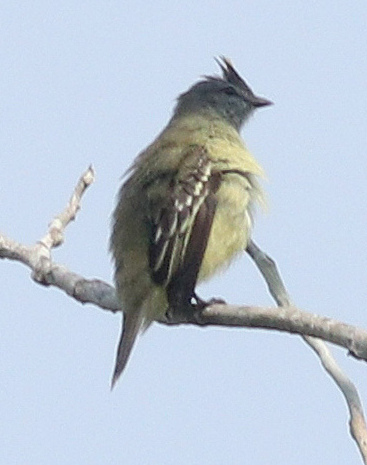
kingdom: Animalia
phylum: Chordata
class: Aves
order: Passeriformes
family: Tyrannidae
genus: Tyrannulus
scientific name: Tyrannulus elatus
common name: Yellow-crowned tyrannulet
